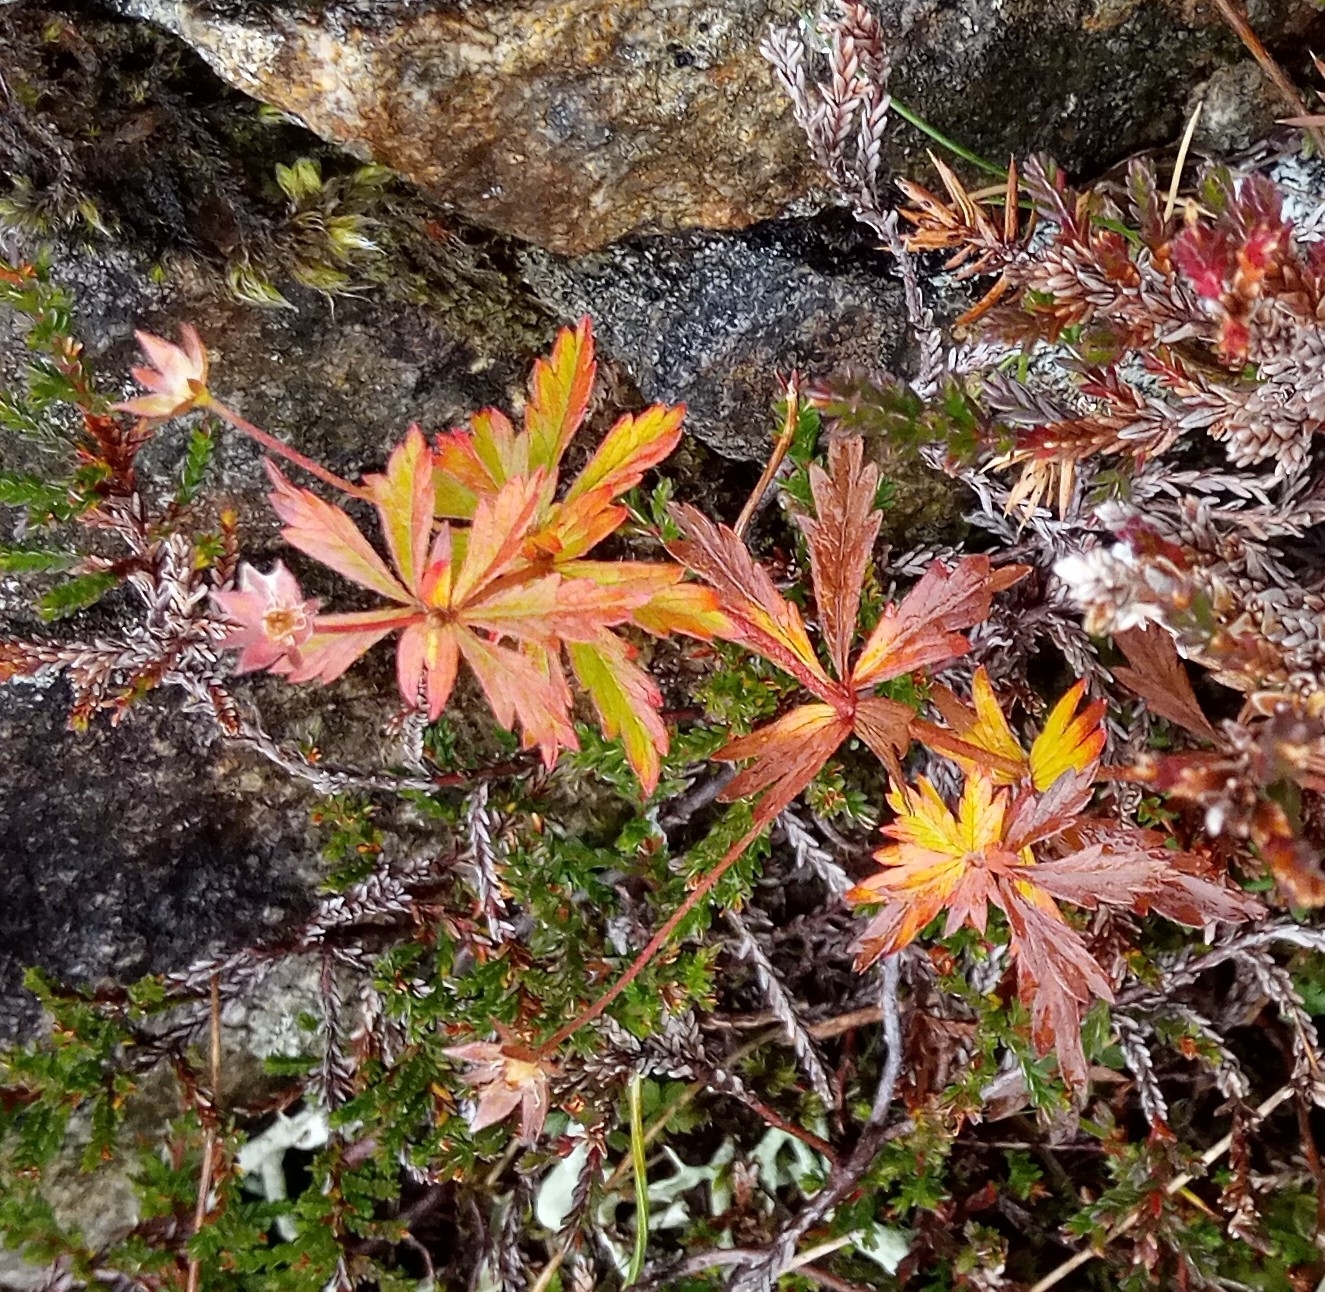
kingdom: Plantae
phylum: Tracheophyta
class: Magnoliopsida
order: Rosales
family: Rosaceae
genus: Potentilla
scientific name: Potentilla erecta
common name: Tormentil
